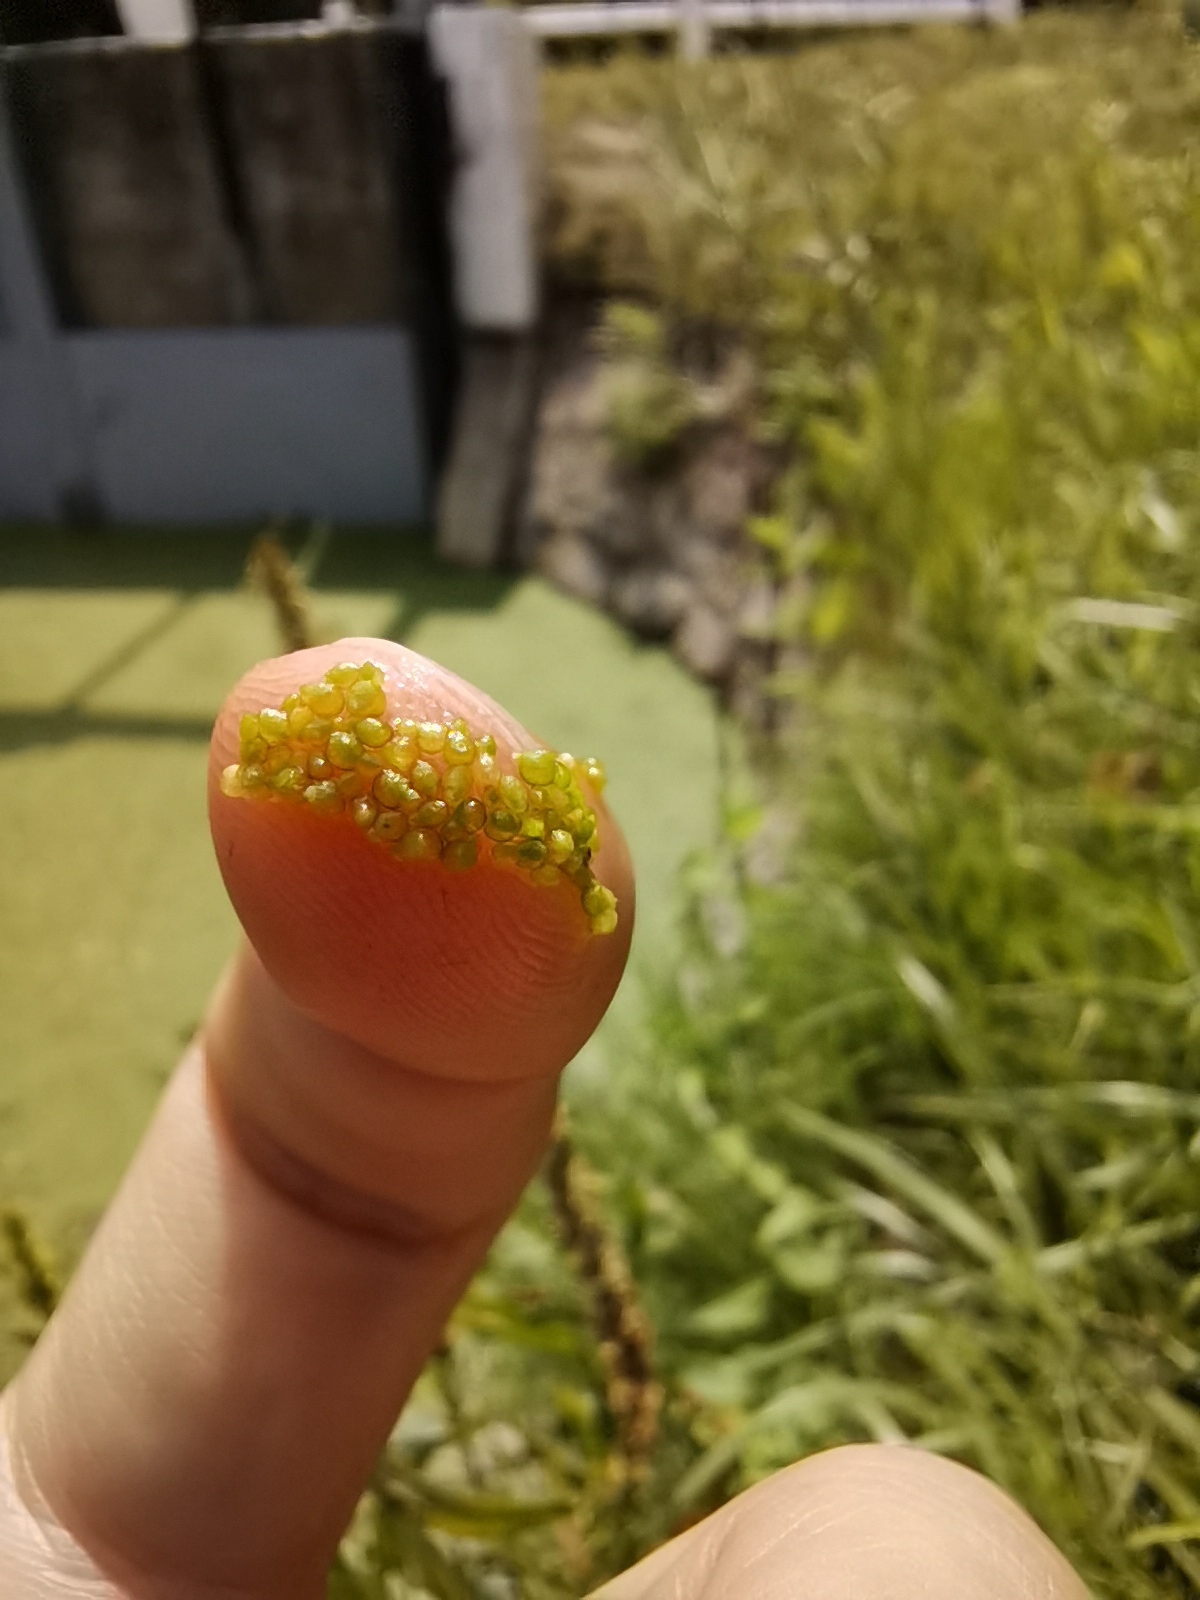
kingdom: Plantae
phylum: Tracheophyta
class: Liliopsida
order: Alismatales
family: Araceae
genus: Wolffia
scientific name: Wolffia arrhiza
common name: Rootless duckweed
